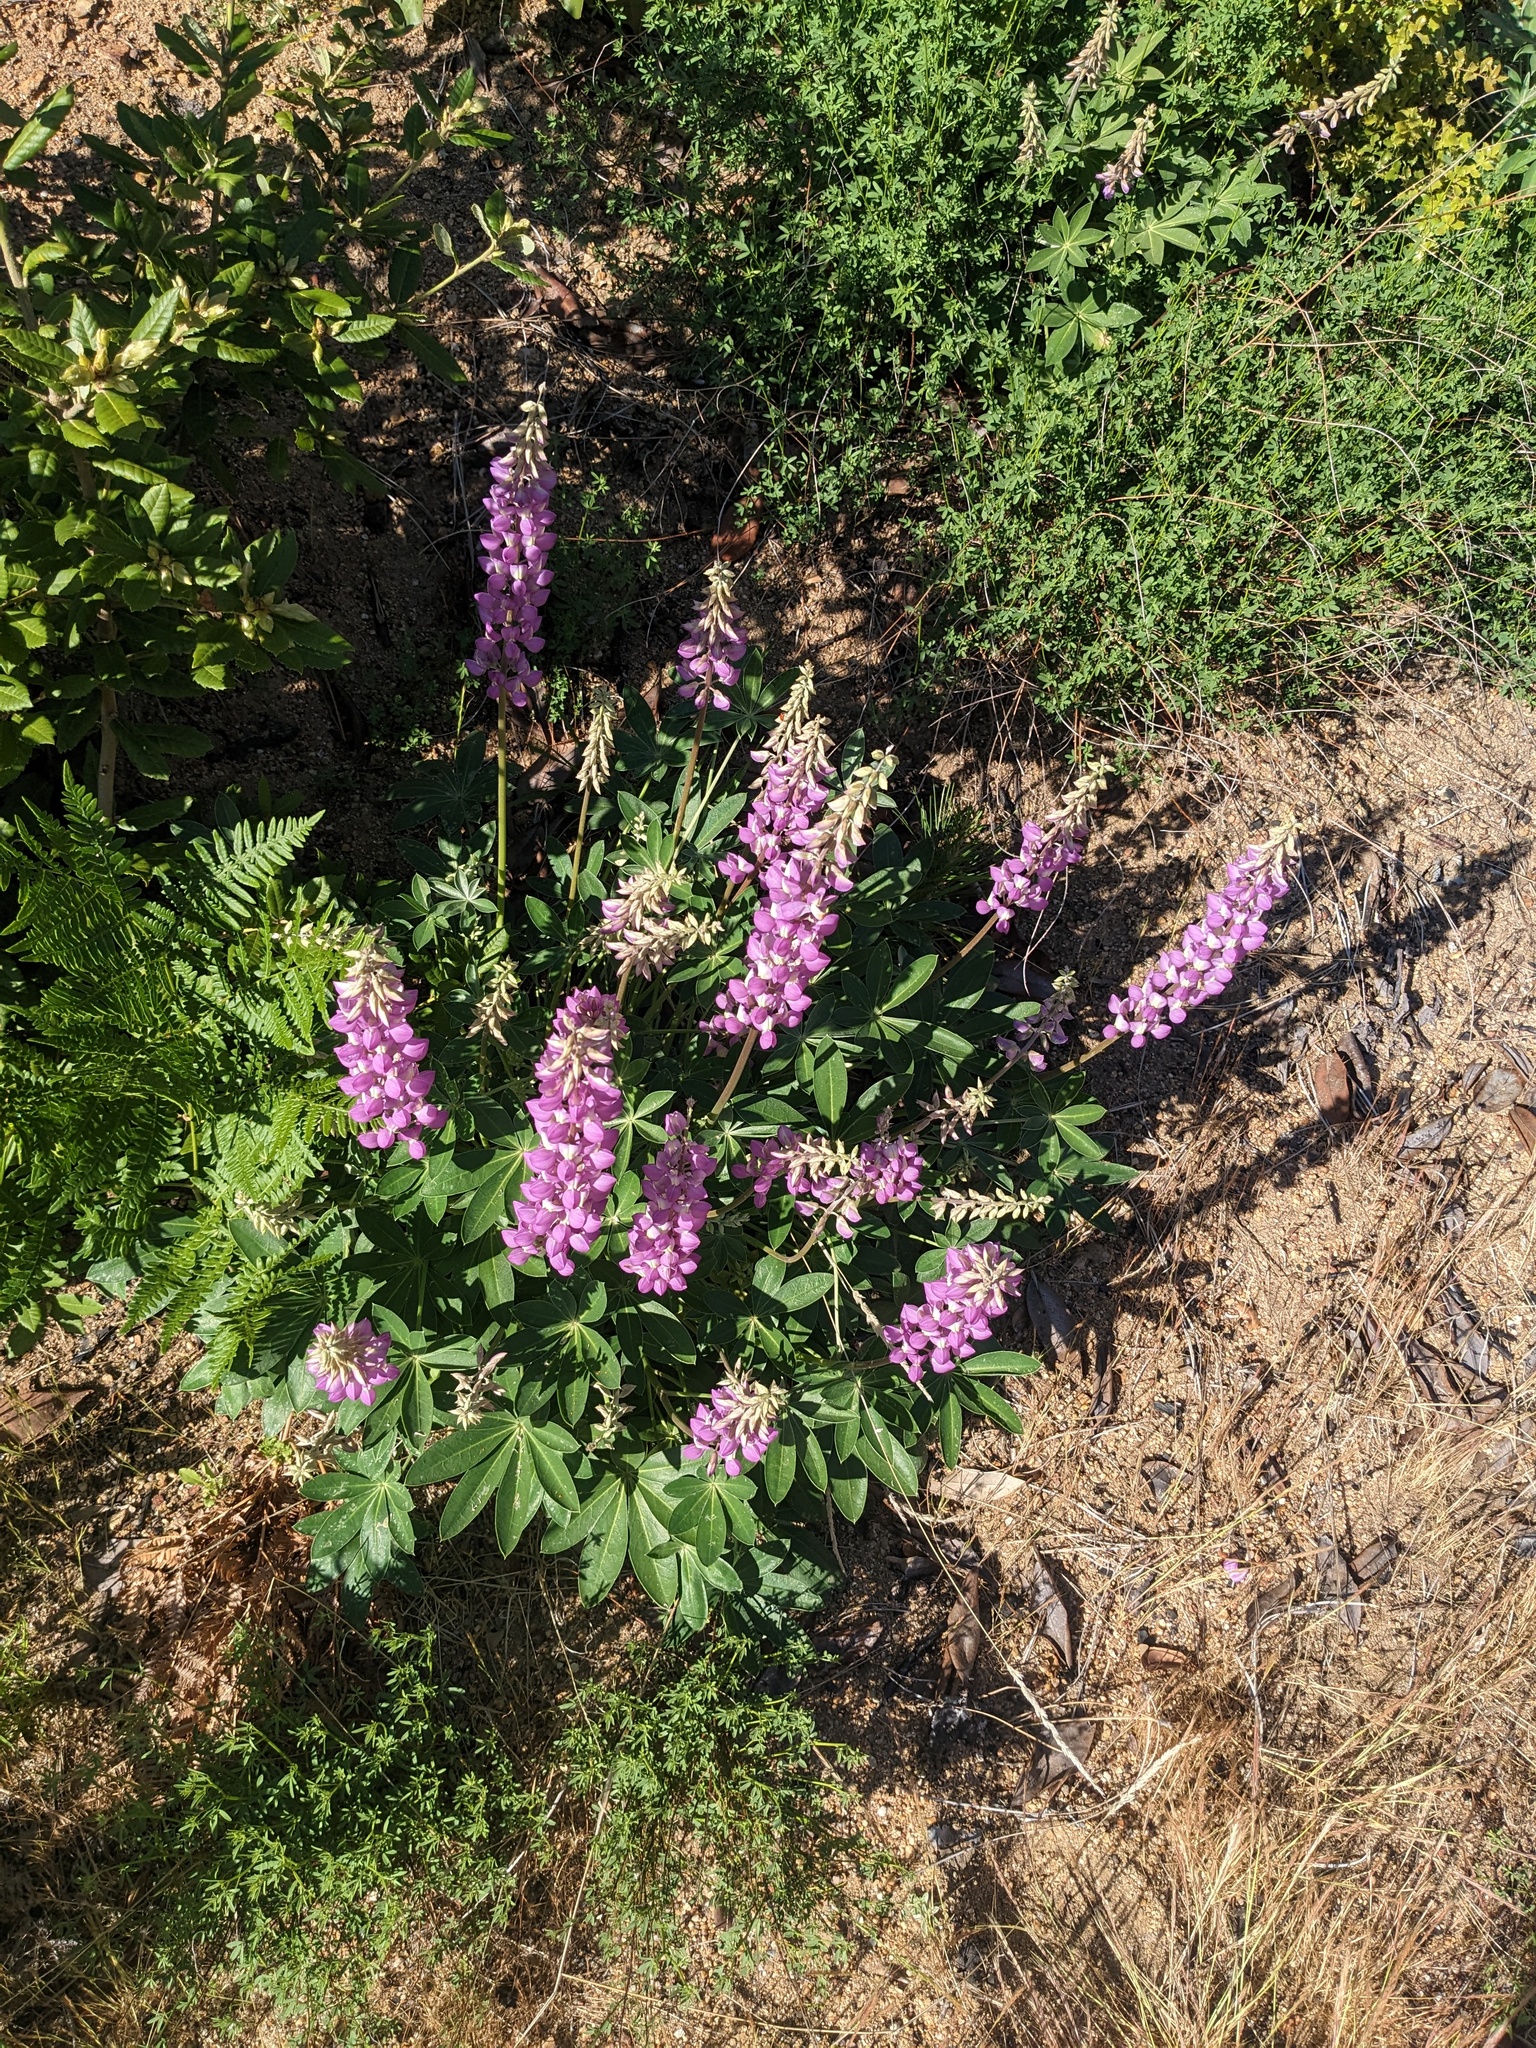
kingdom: Plantae
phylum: Tracheophyta
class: Magnoliopsida
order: Fabales
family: Fabaceae
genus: Lupinus
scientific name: Lupinus cervinus
